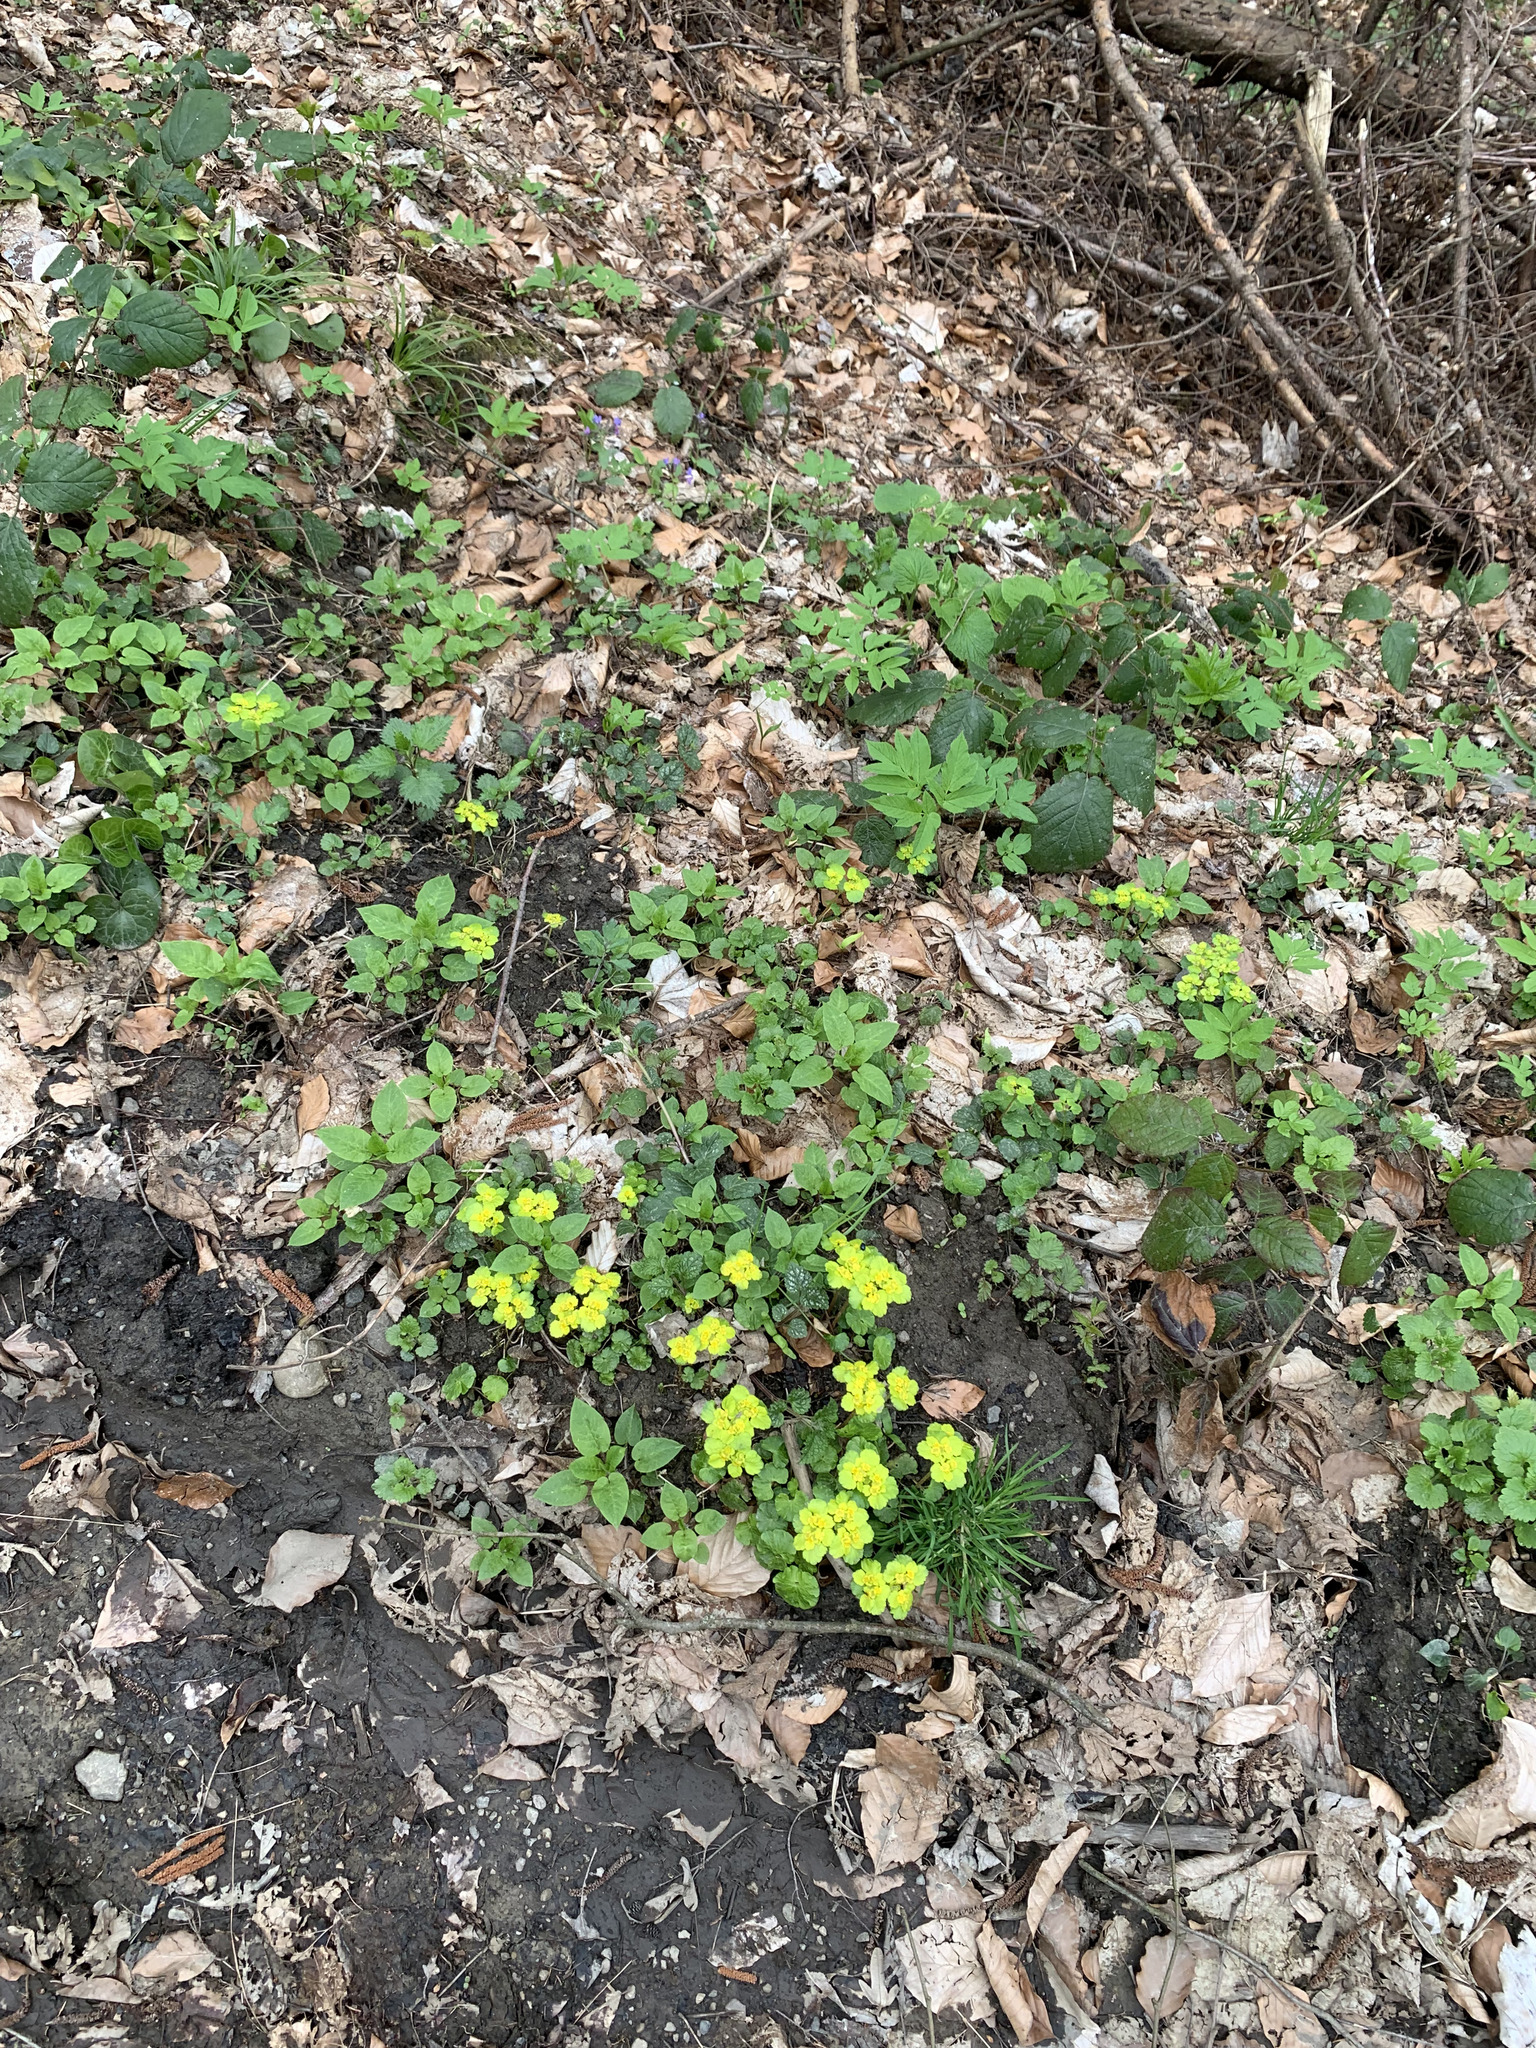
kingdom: Plantae
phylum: Tracheophyta
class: Magnoliopsida
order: Saxifragales
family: Saxifragaceae
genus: Chrysosplenium
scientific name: Chrysosplenium alternifolium
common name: Alternate-leaved golden-saxifrage
